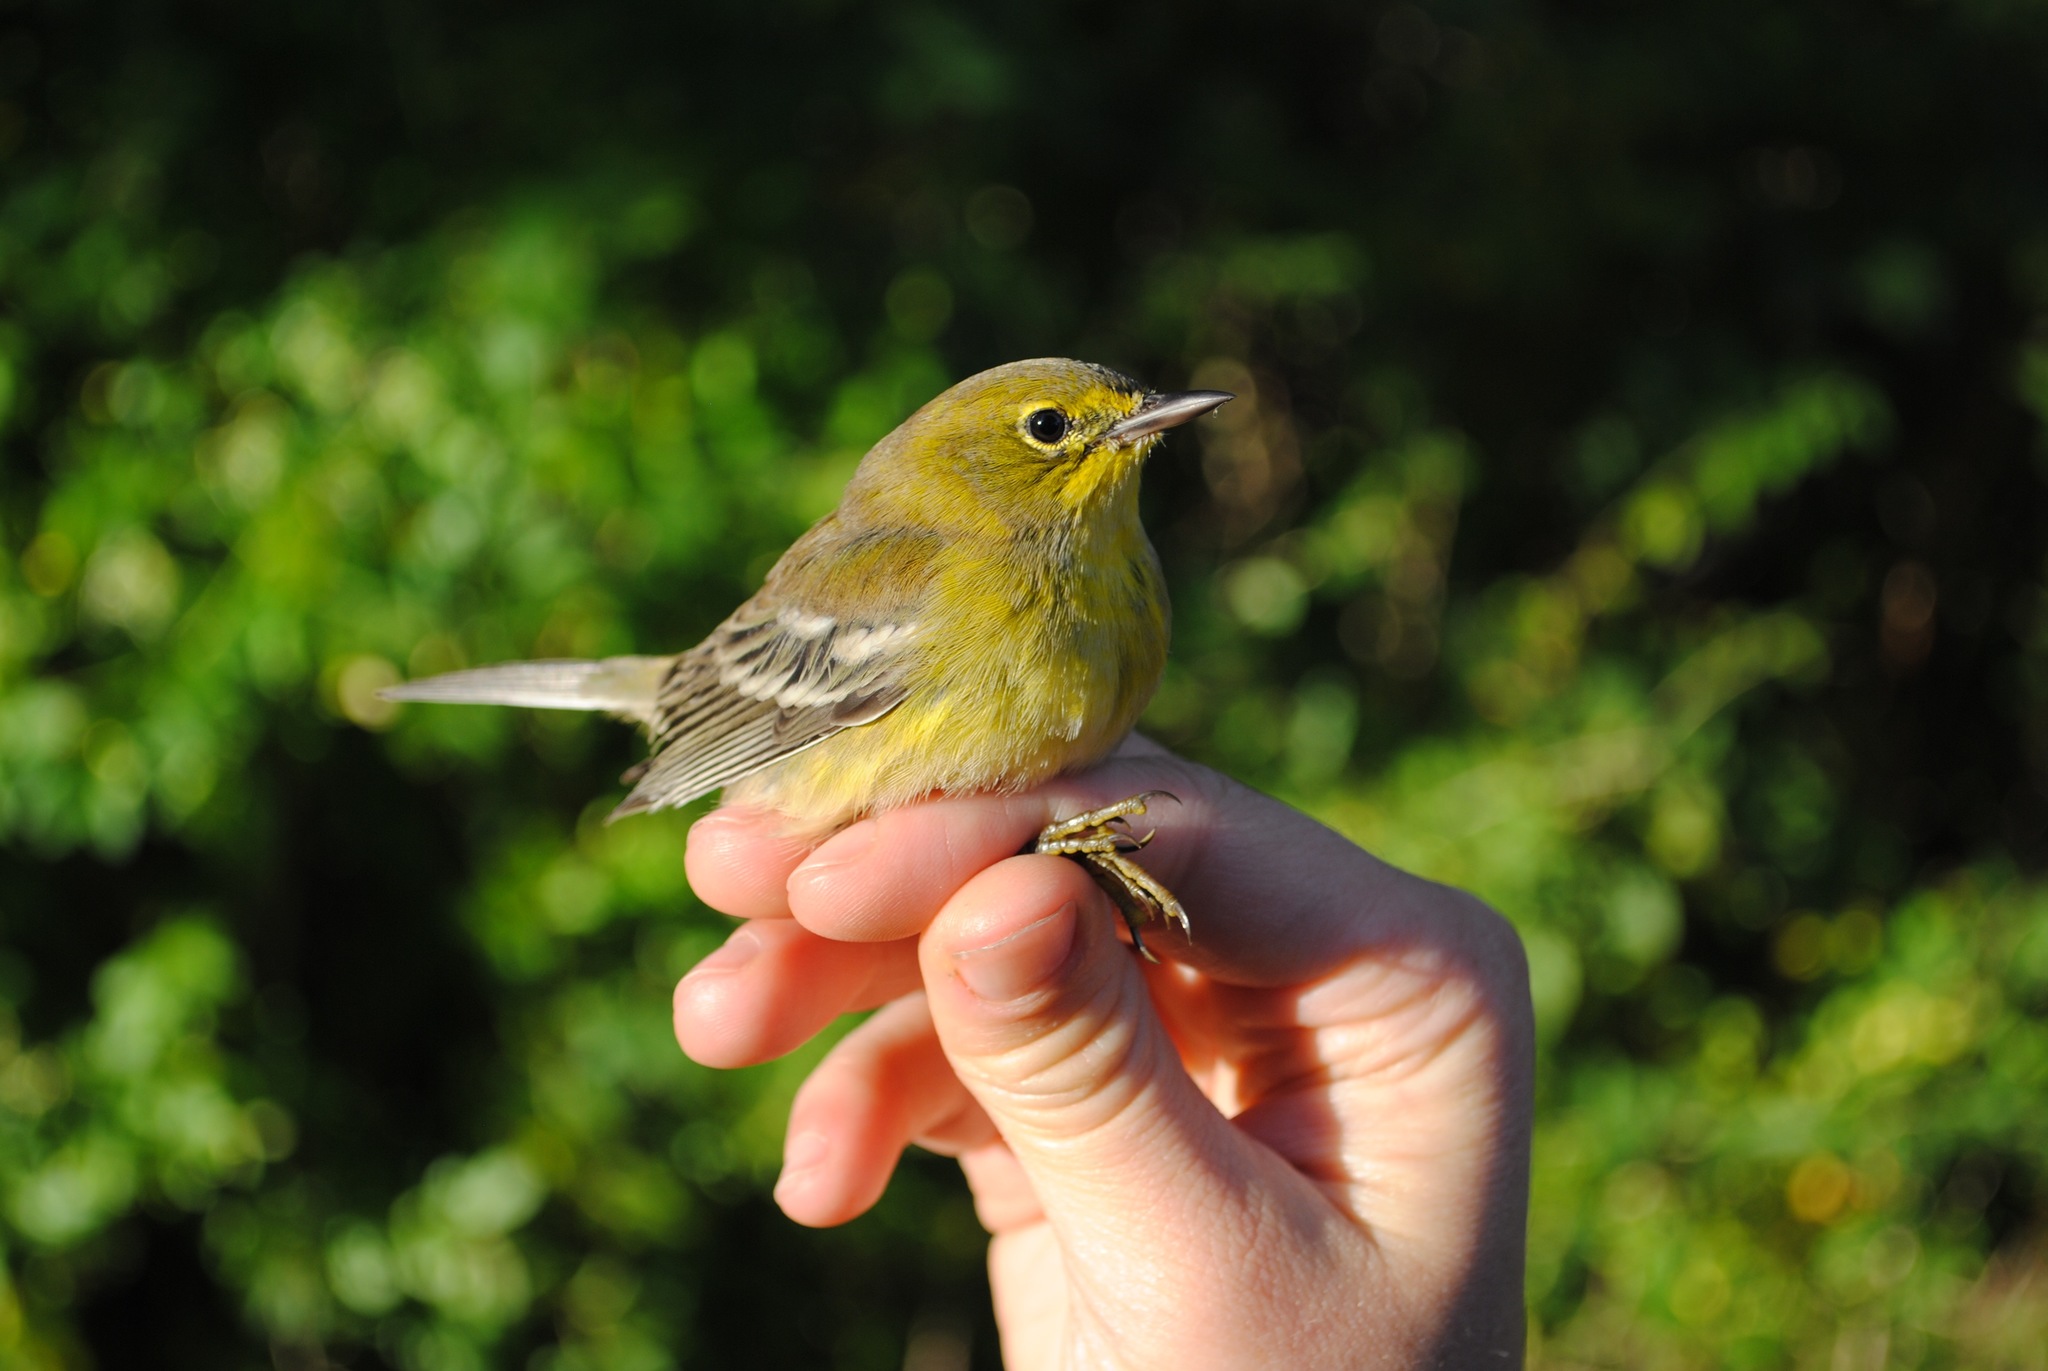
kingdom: Animalia
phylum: Chordata
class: Aves
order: Passeriformes
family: Parulidae
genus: Setophaga
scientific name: Setophaga pinus
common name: Pine warbler
